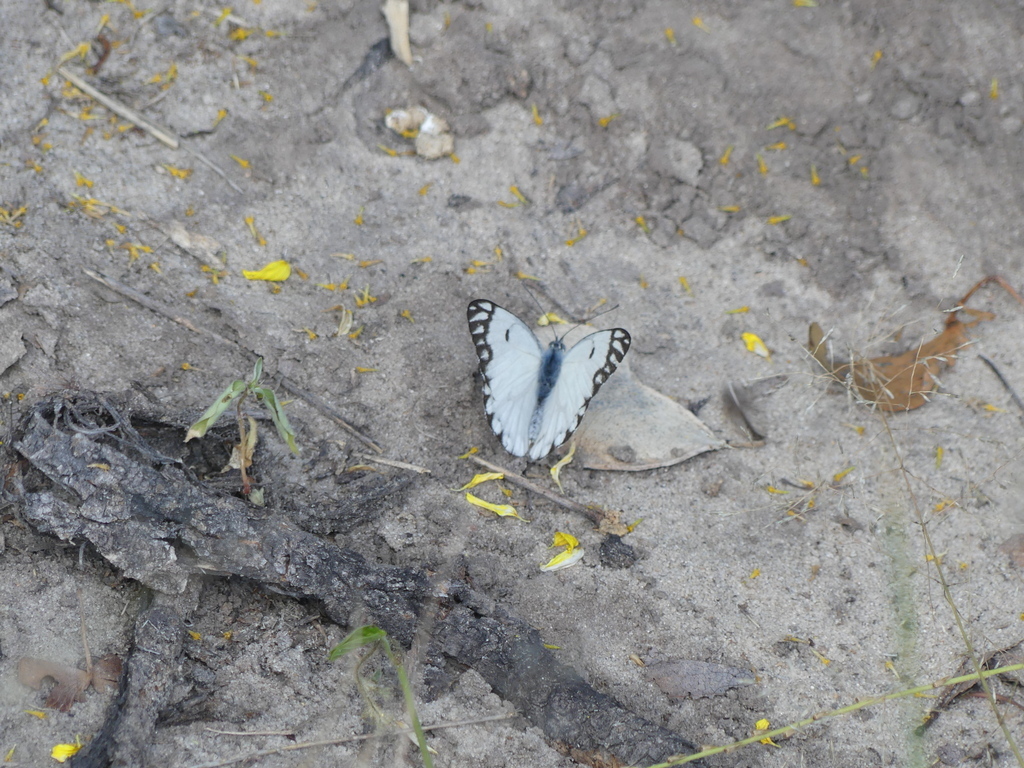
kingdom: Animalia
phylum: Arthropoda
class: Insecta
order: Lepidoptera
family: Pieridae
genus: Belenois
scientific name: Belenois aurota
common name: Brown-veined white
